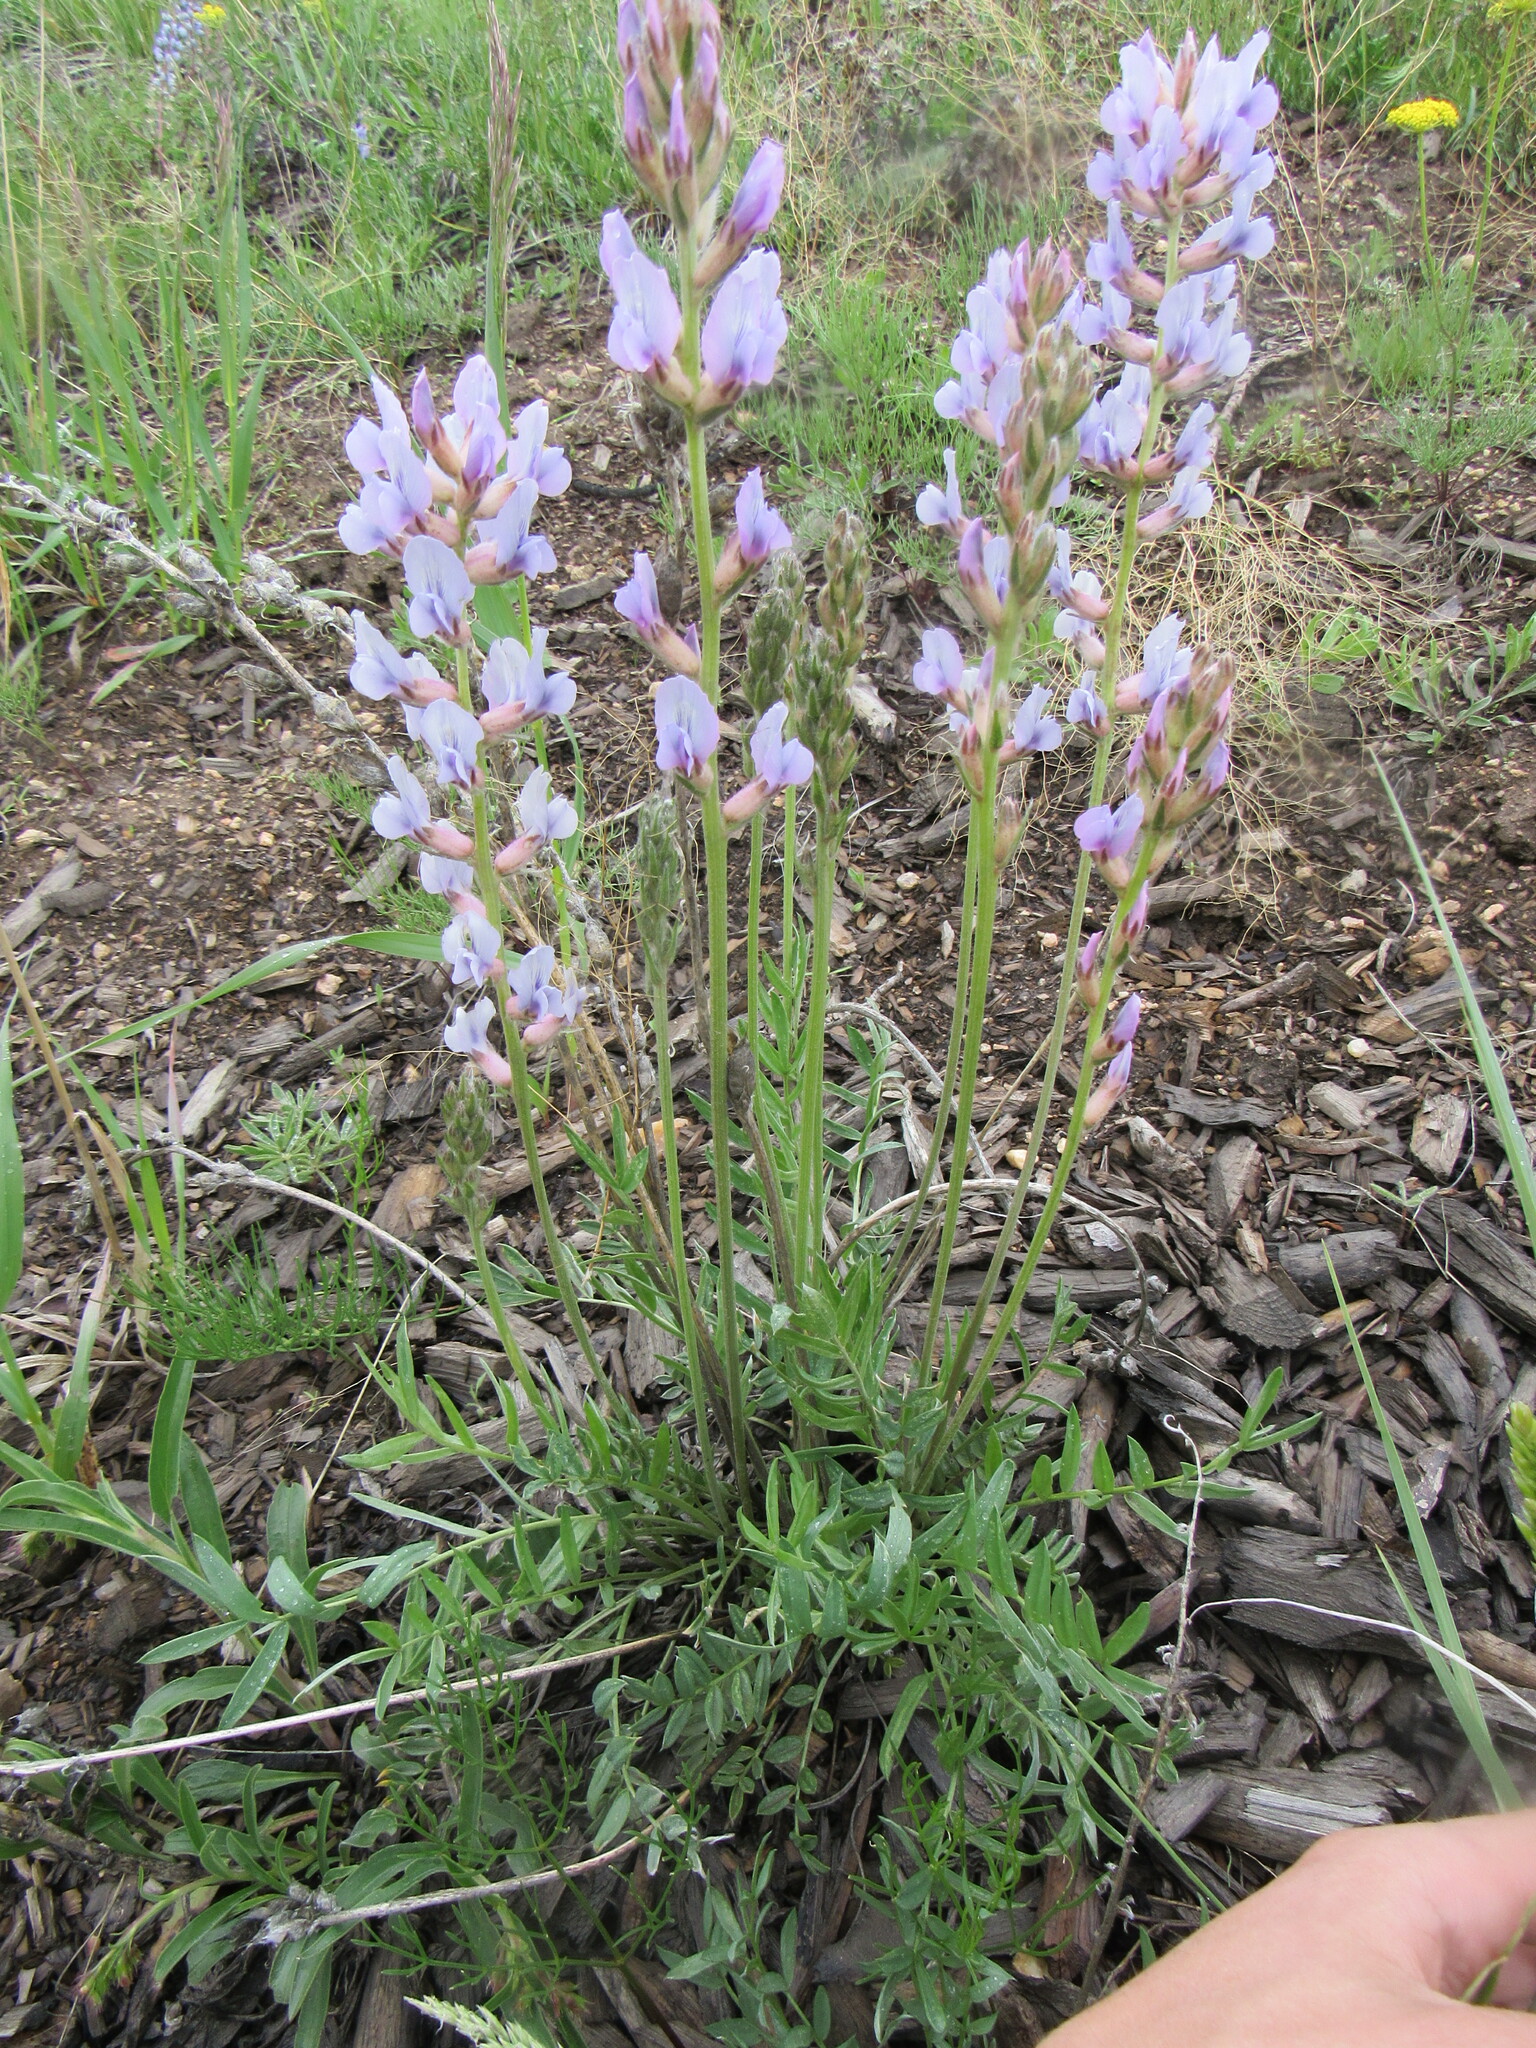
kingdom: Plantae
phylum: Tracheophyta
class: Magnoliopsida
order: Fabales
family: Fabaceae
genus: Oxytropis
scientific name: Oxytropis lambertii
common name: Purple locoweed
